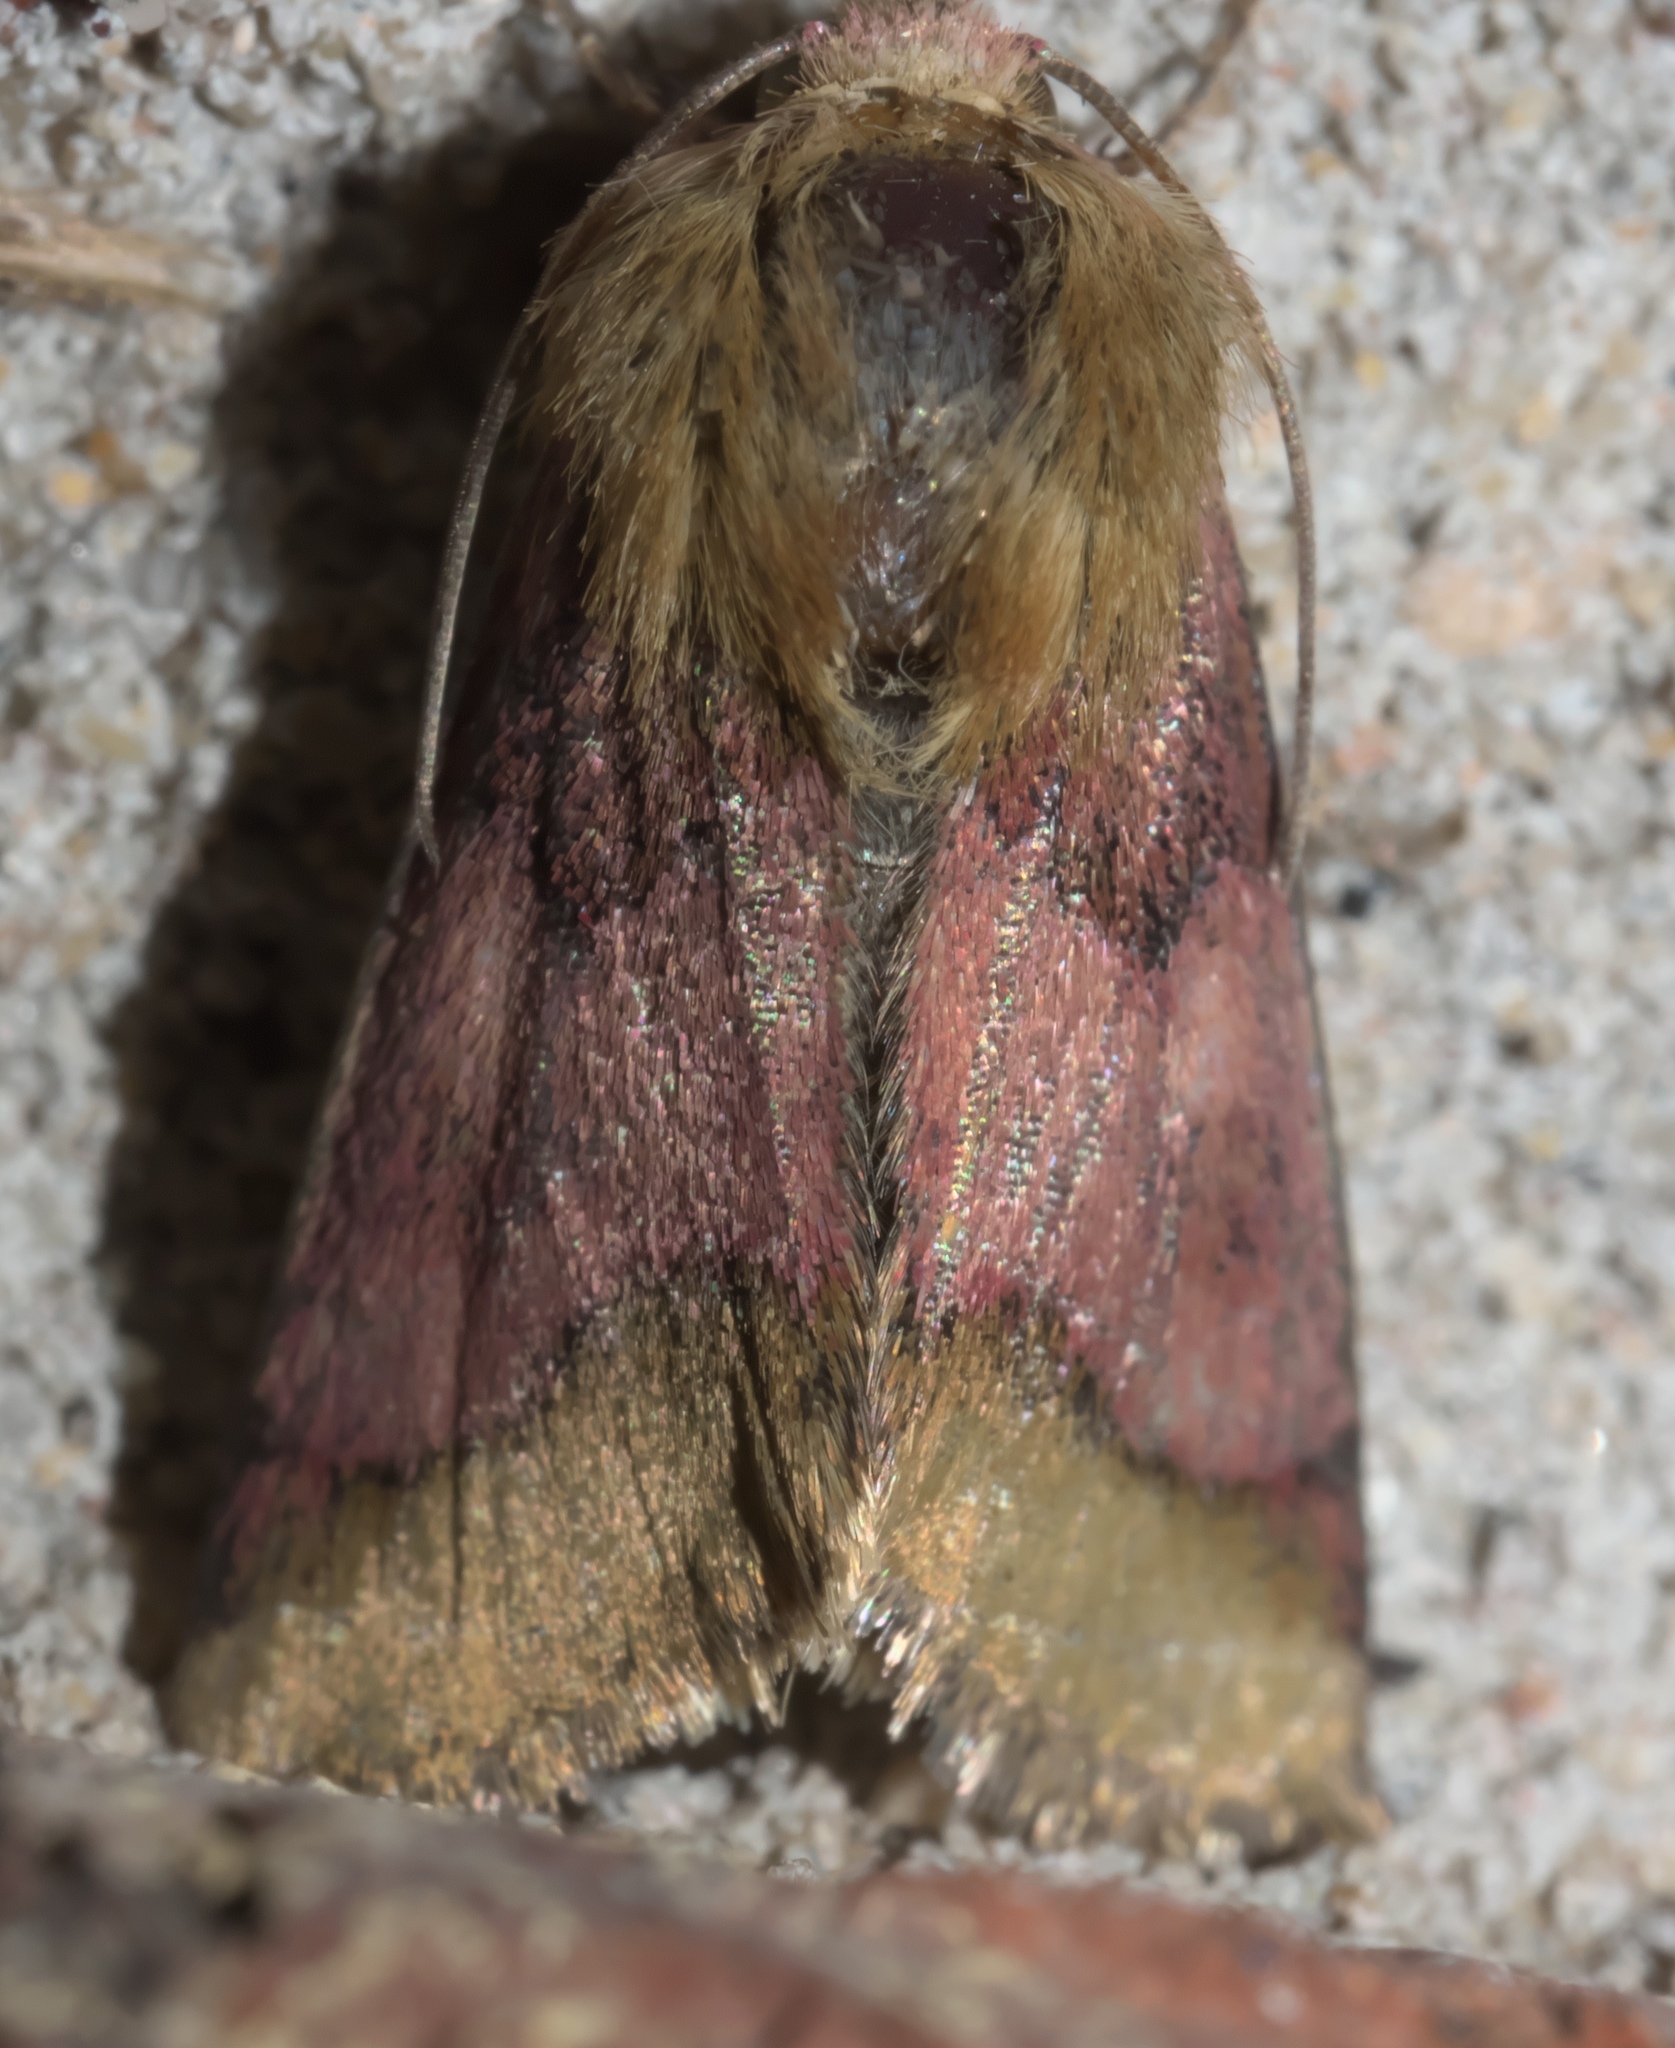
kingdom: Animalia
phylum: Arthropoda
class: Insecta
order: Lepidoptera
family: Noctuidae
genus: Schinia
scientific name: Schinia bina
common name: Bina flower moth
